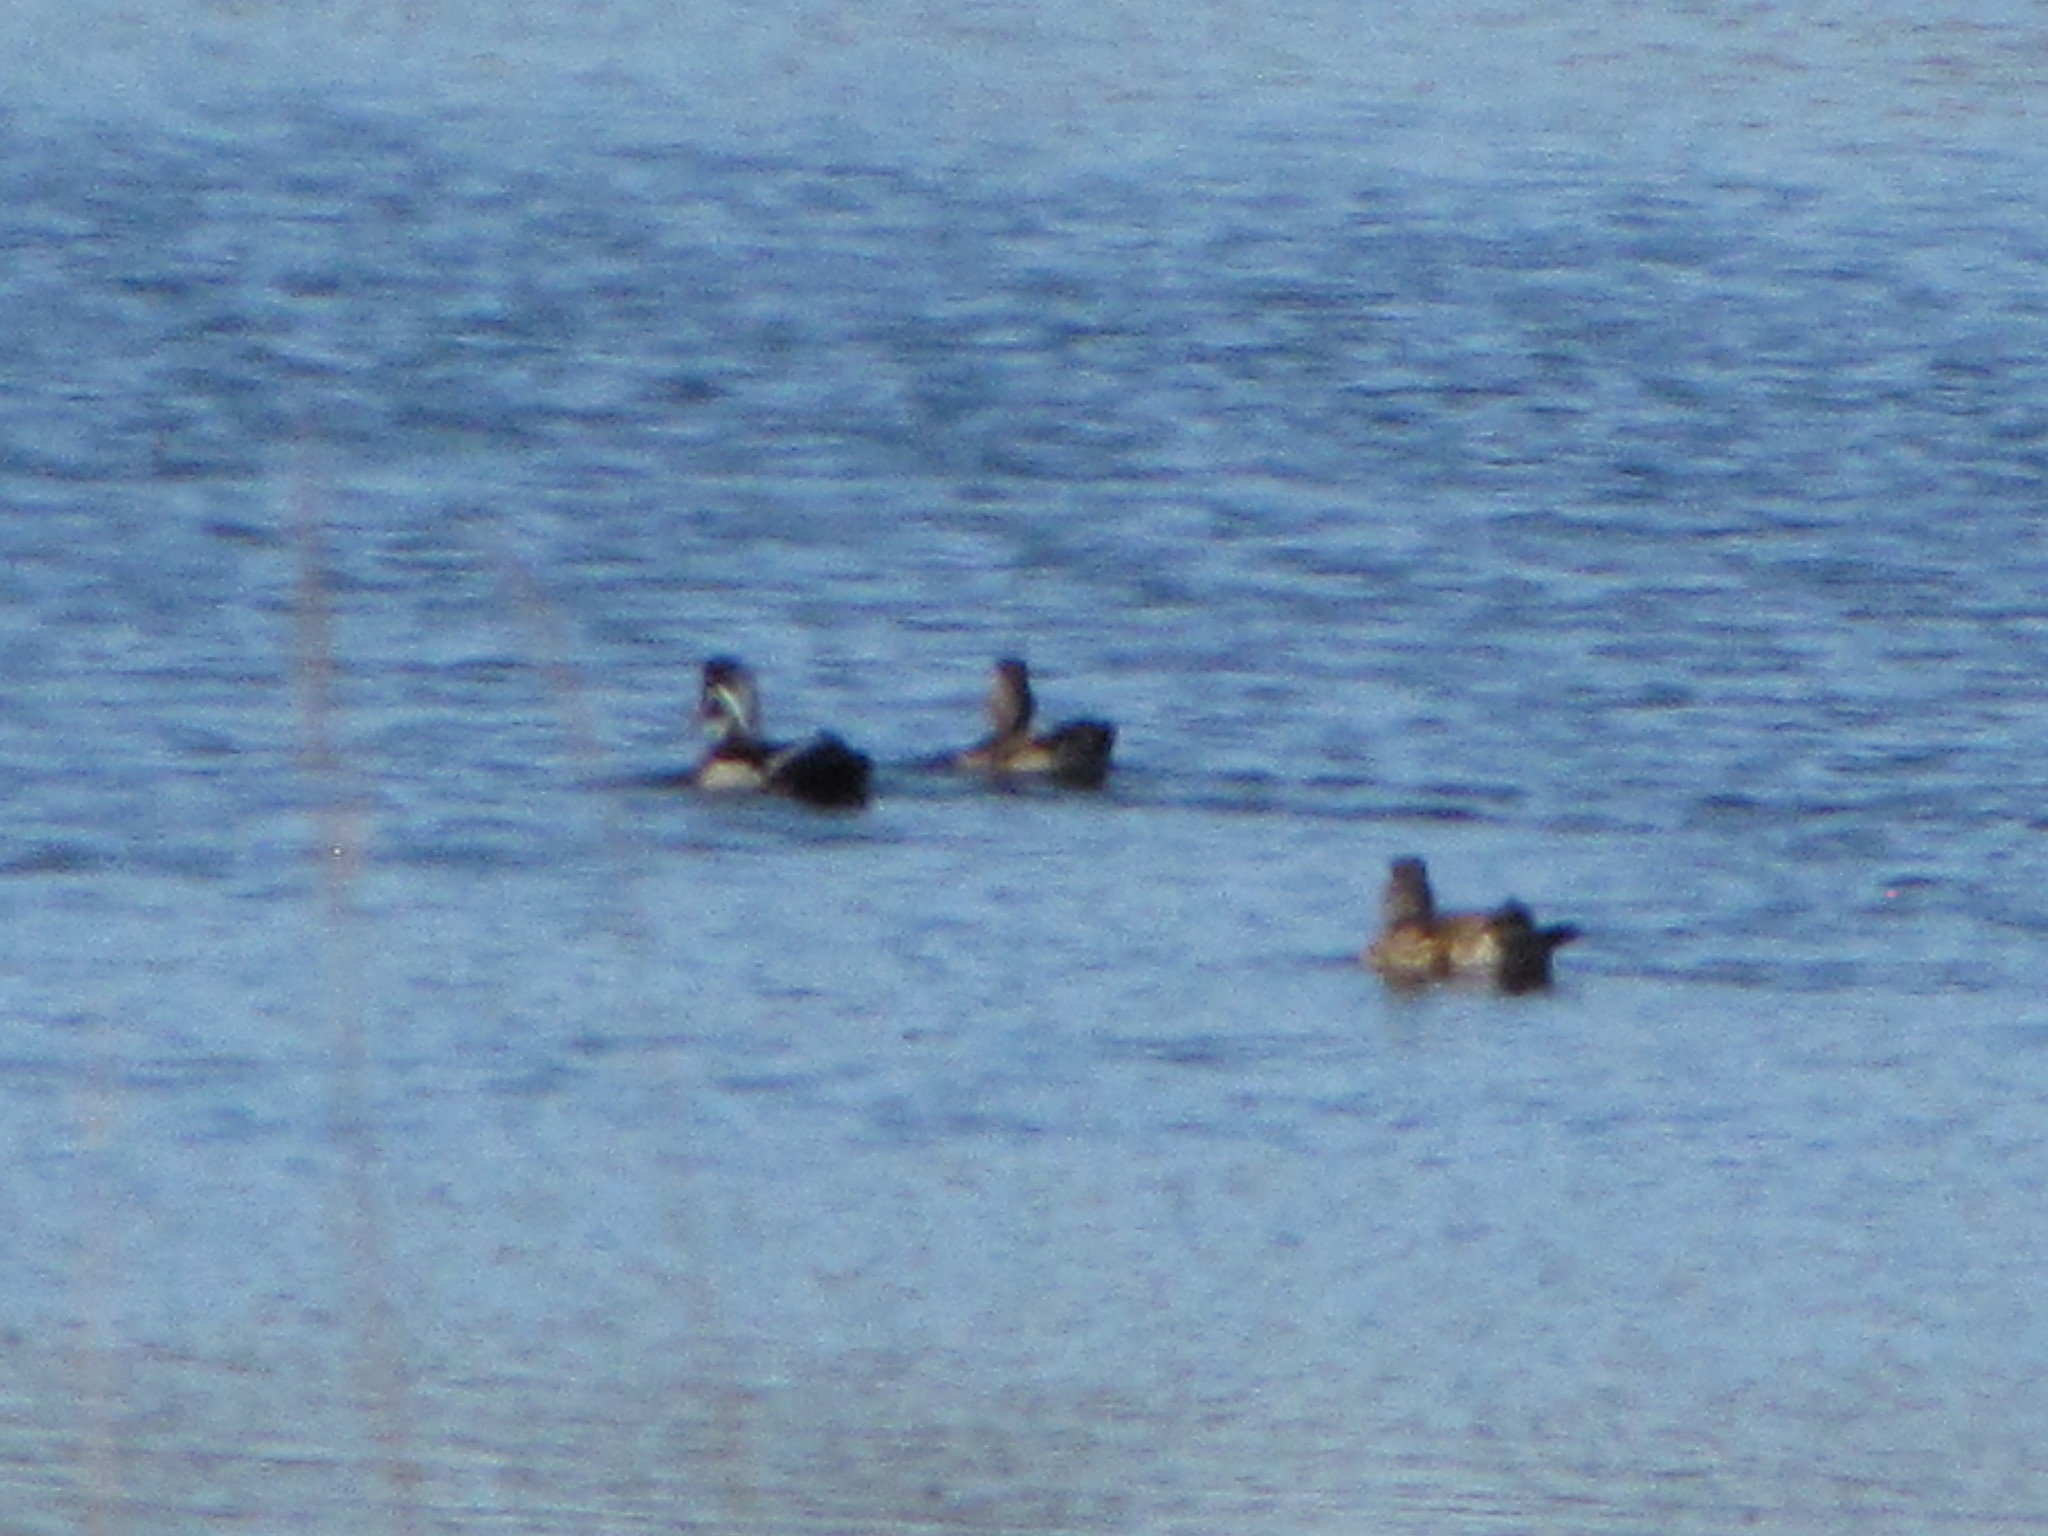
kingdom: Animalia
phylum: Chordata
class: Aves
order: Anseriformes
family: Anatidae
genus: Aix
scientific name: Aix sponsa
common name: Wood duck
